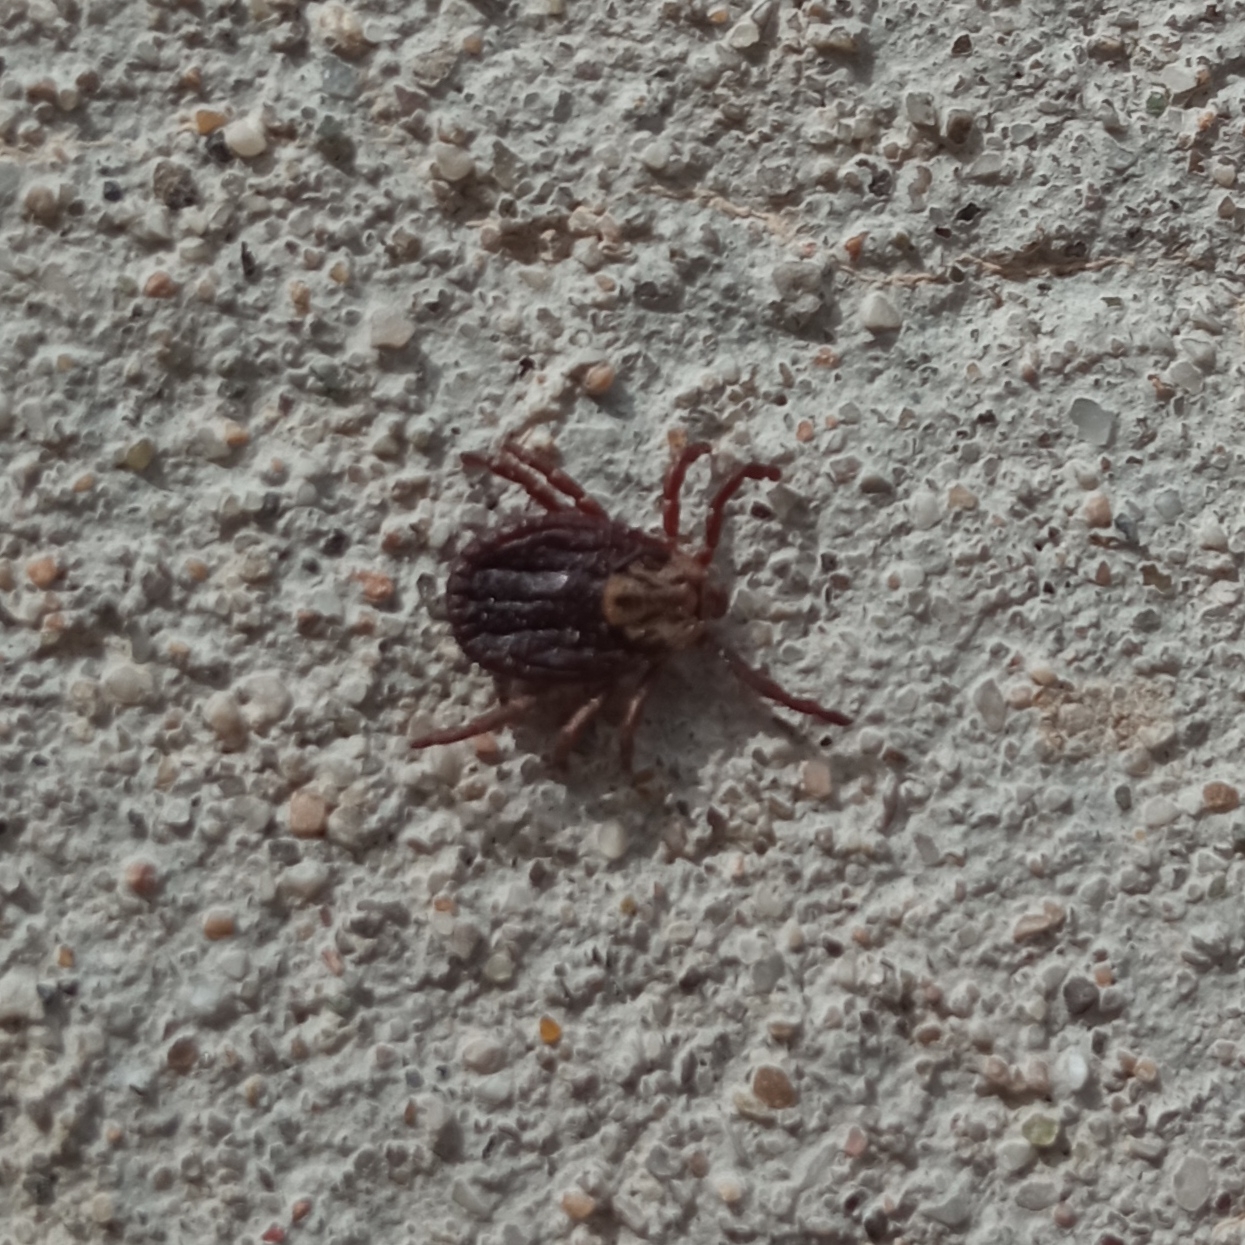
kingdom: Animalia
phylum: Arthropoda
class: Arachnida
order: Ixodida
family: Ixodidae
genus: Dermacentor
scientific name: Dermacentor marginatus
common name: Ornate sheep tick
